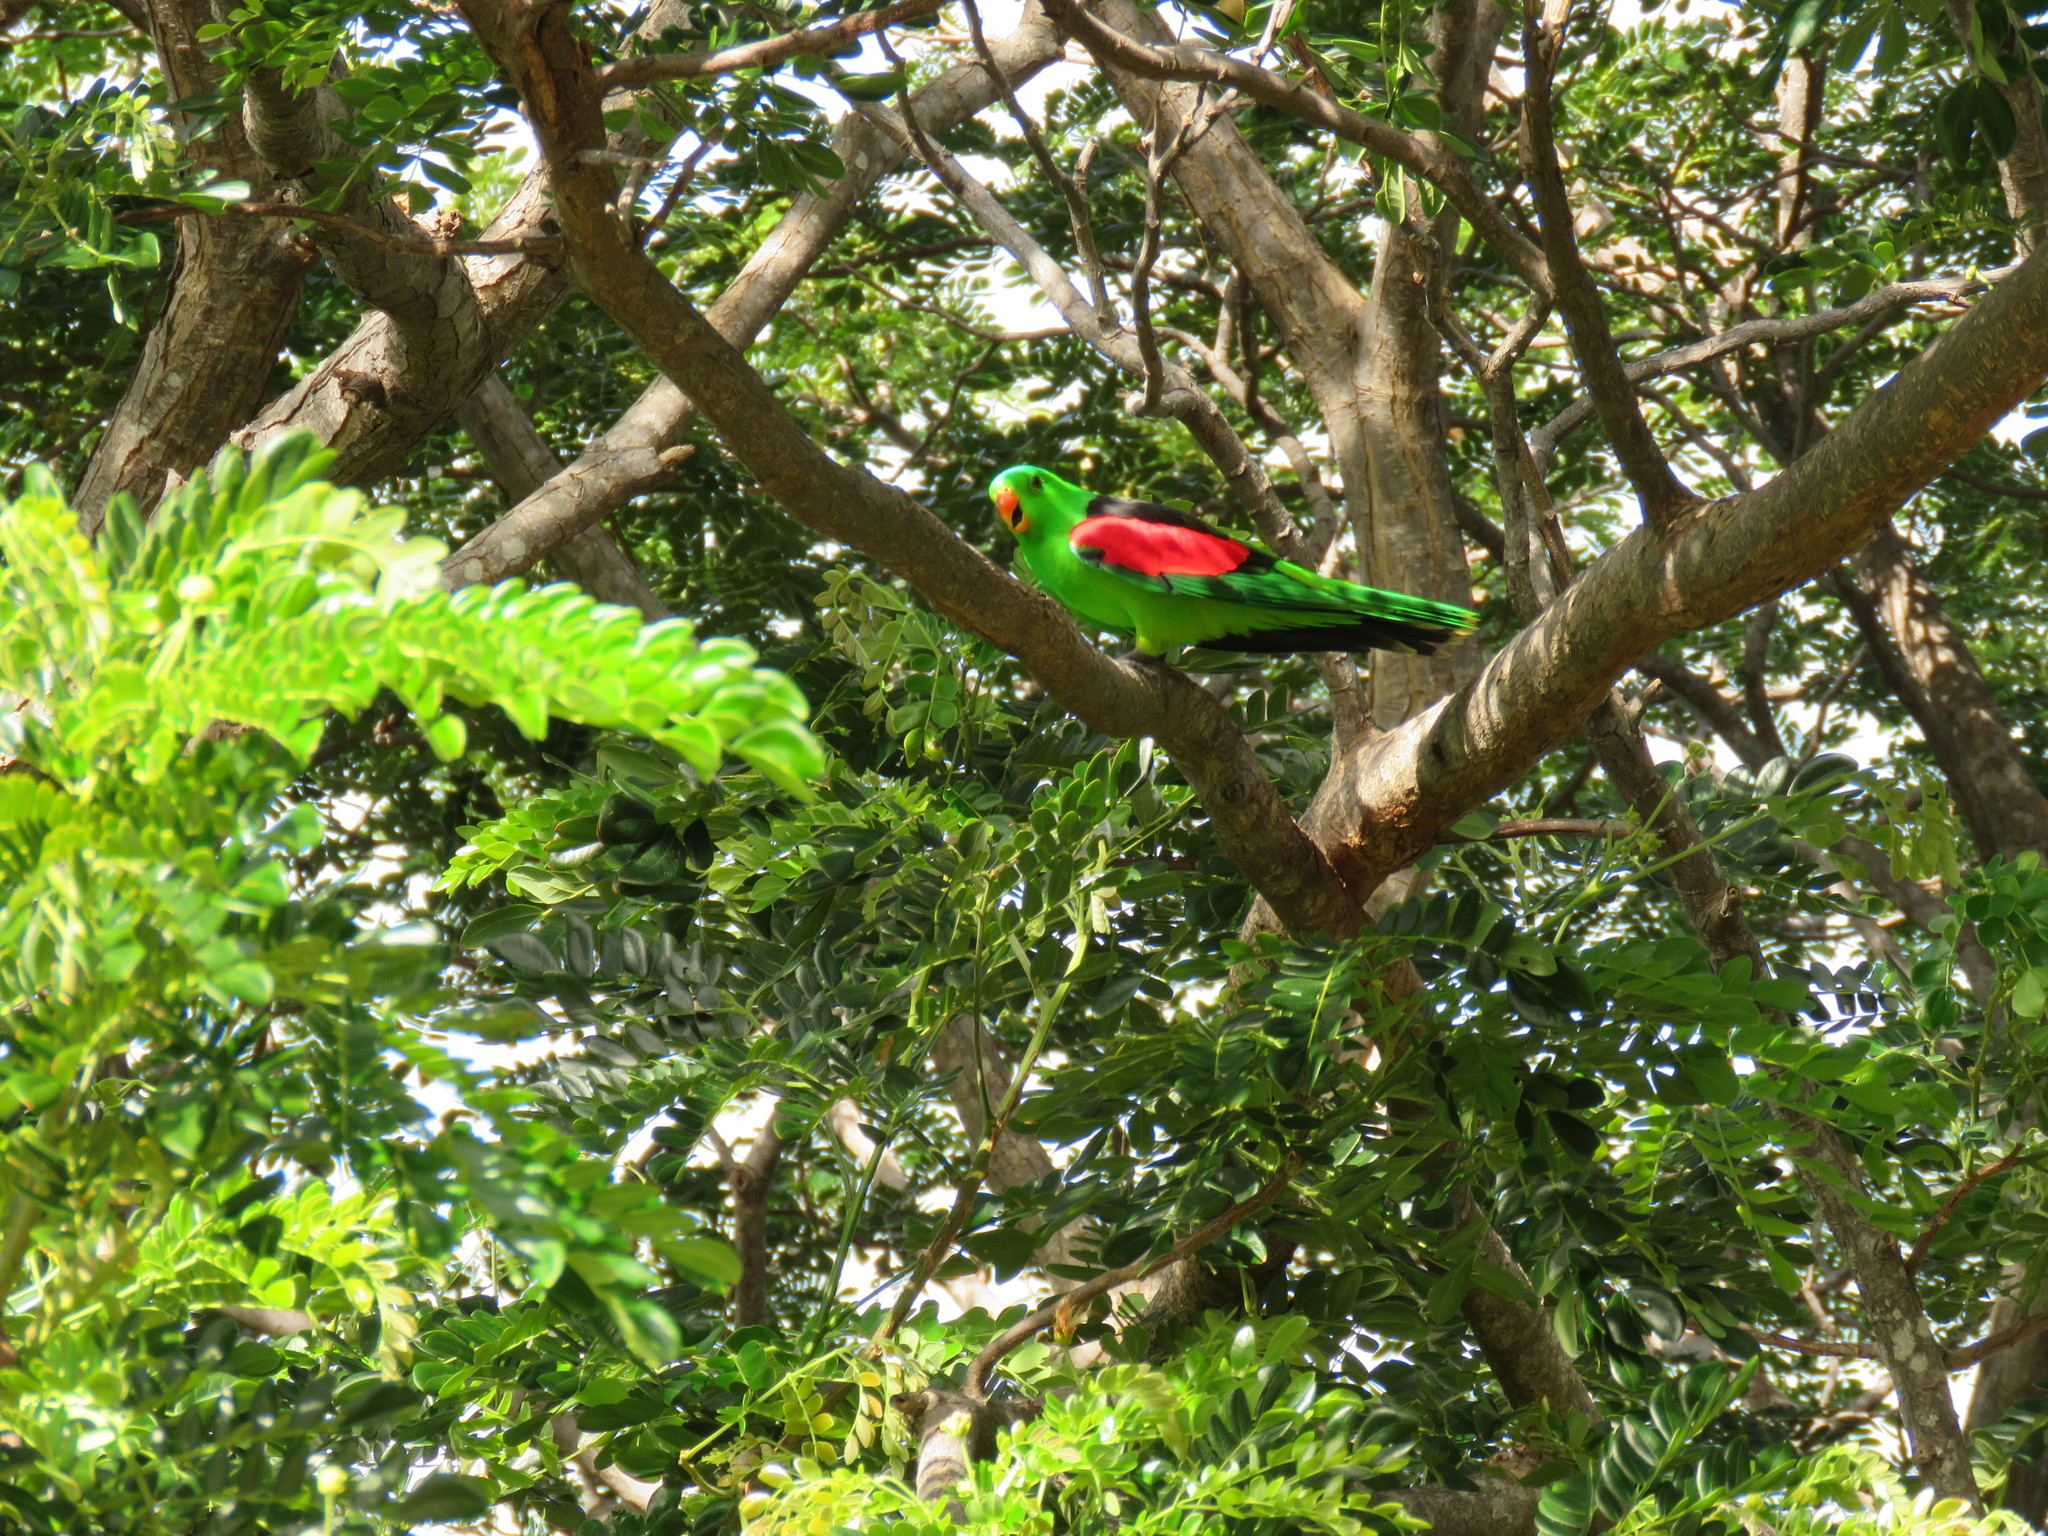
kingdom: Animalia
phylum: Chordata
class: Aves
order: Psittaciformes
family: Psittacidae
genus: Aprosmictus
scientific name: Aprosmictus erythropterus
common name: Red-winged parrot
